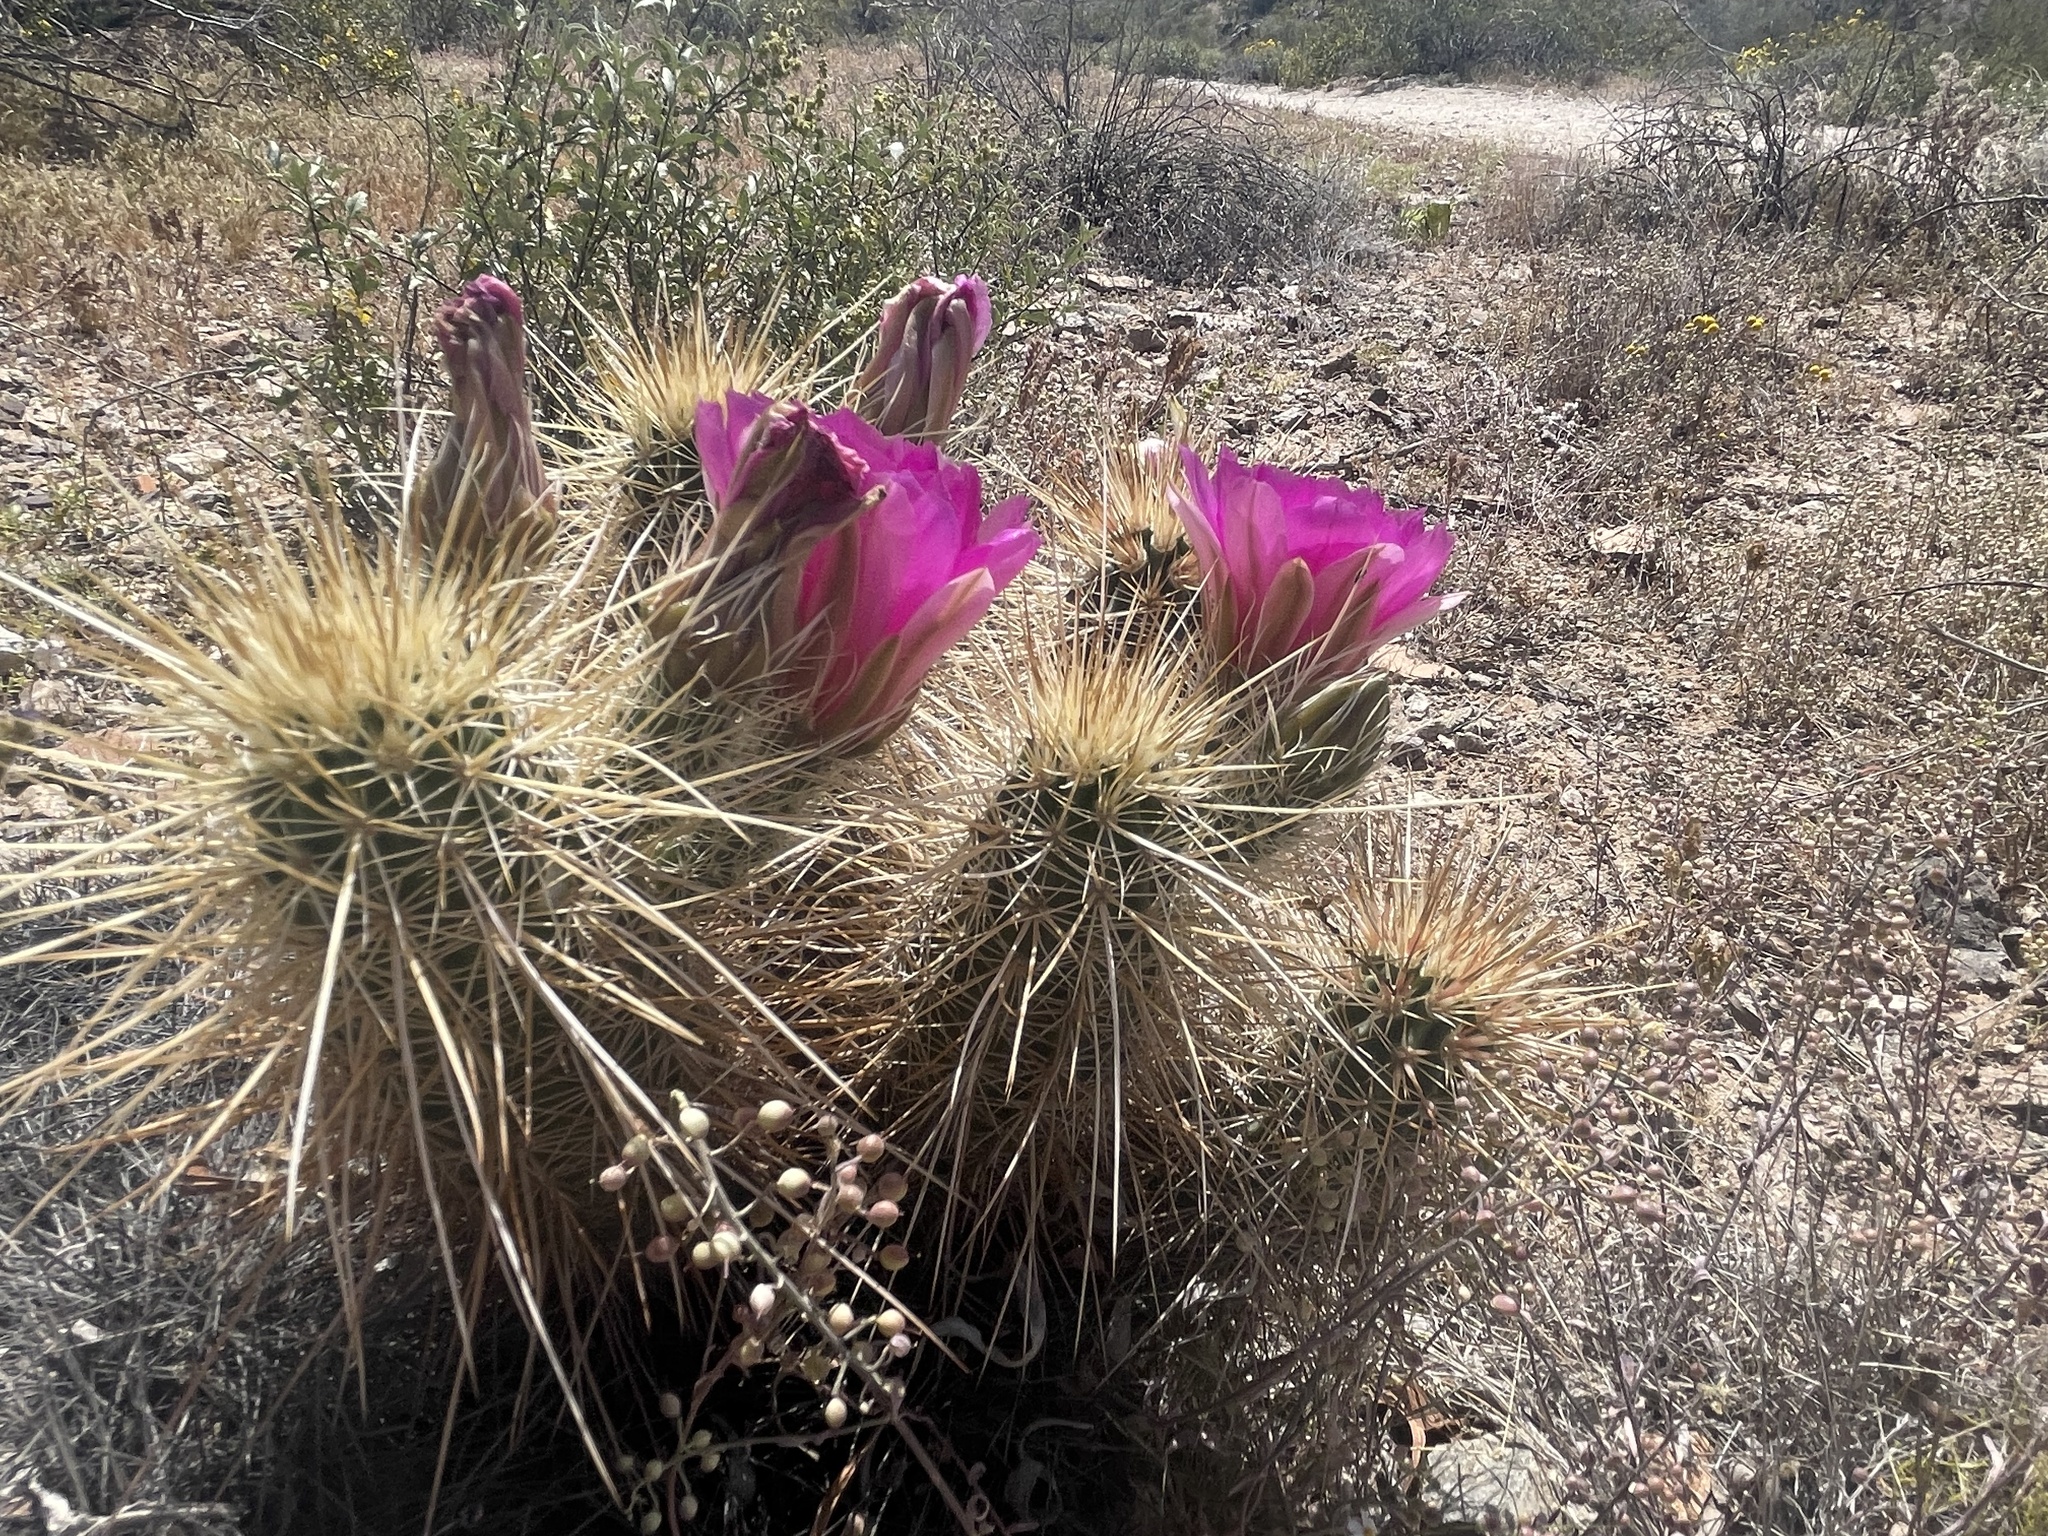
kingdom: Plantae
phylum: Tracheophyta
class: Magnoliopsida
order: Caryophyllales
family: Cactaceae
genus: Echinocereus
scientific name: Echinocereus engelmannii
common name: Engelmann's hedgehog cactus
